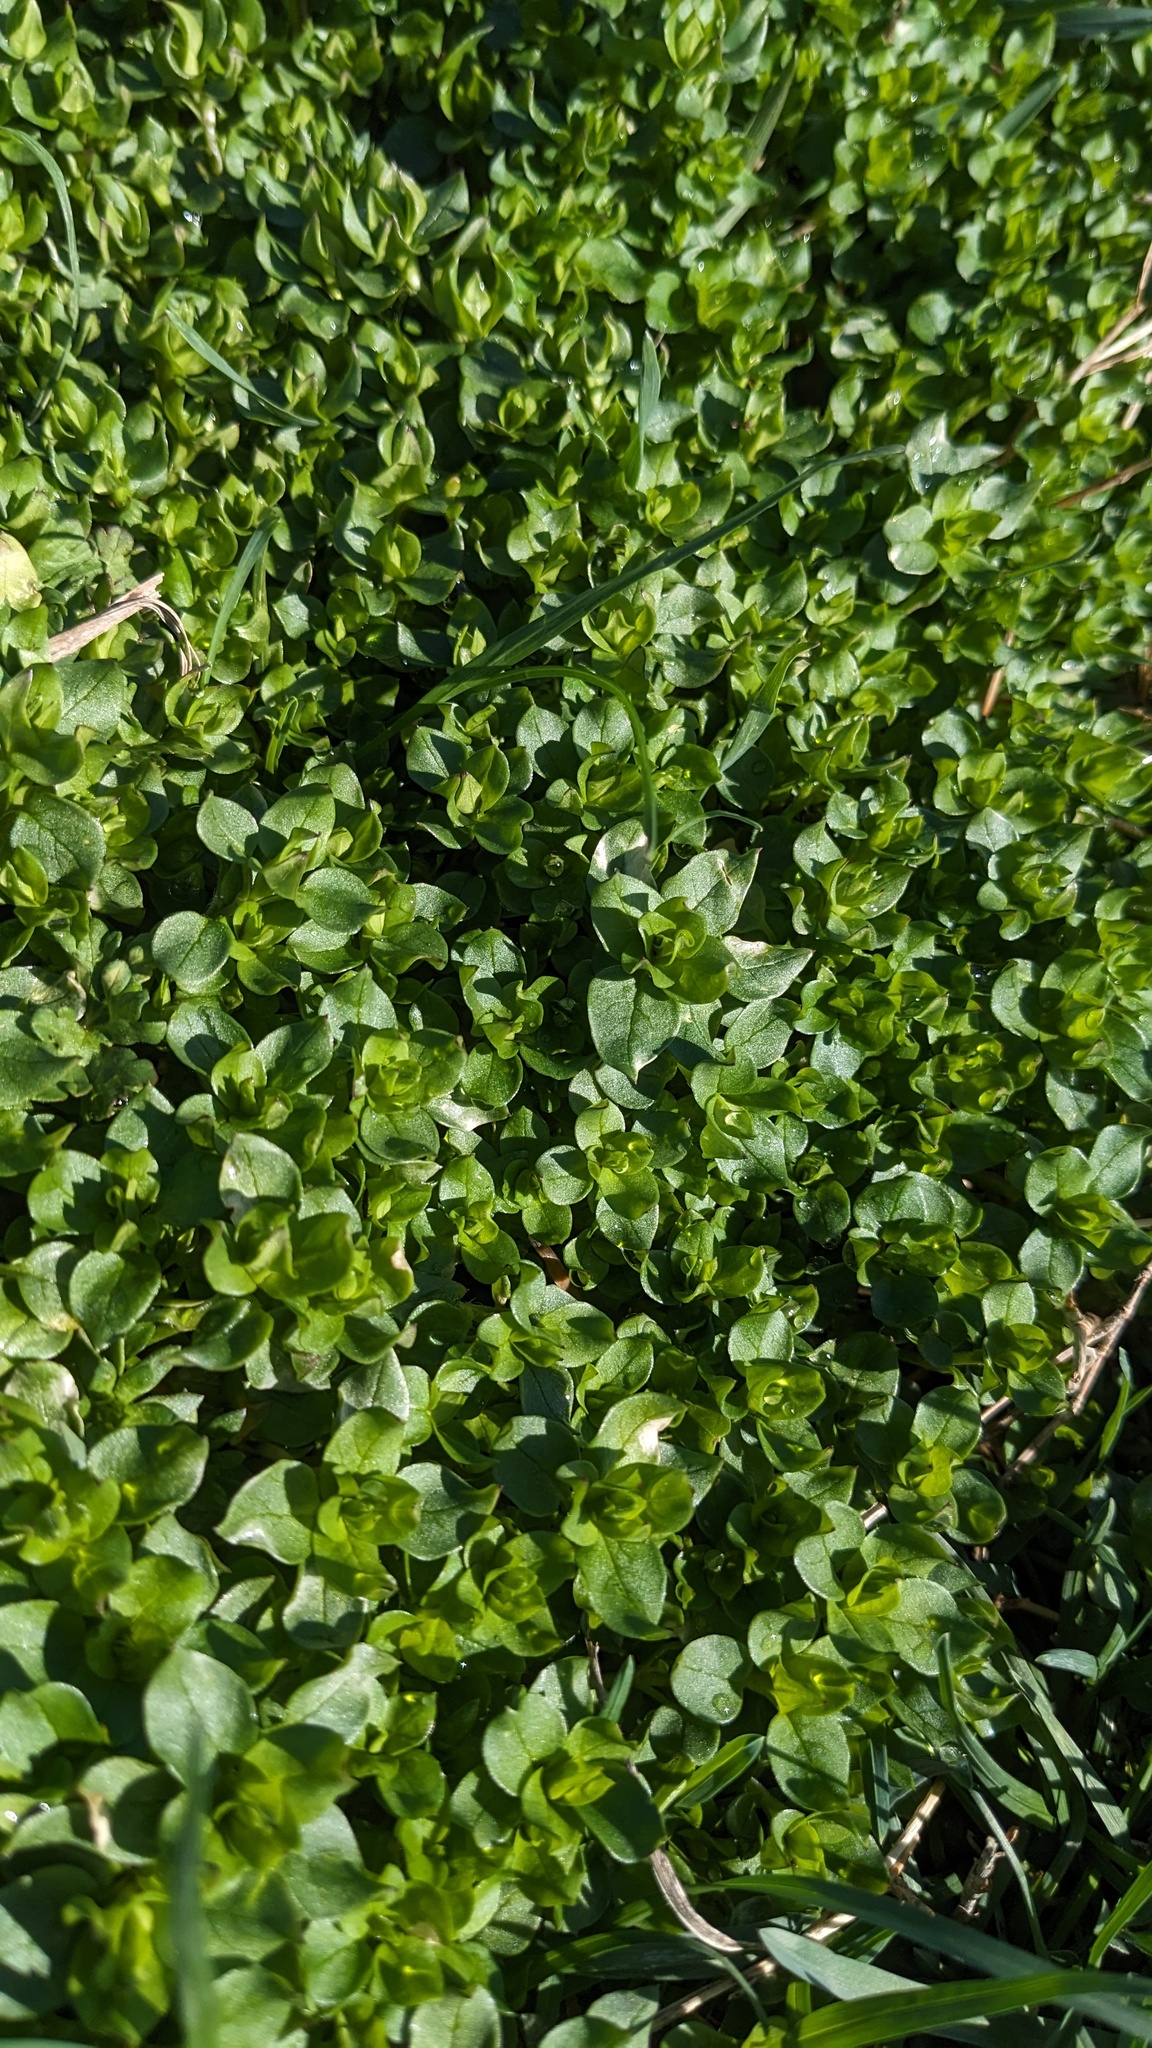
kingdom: Plantae
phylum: Tracheophyta
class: Magnoliopsida
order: Caryophyllales
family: Caryophyllaceae
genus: Stellaria
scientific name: Stellaria media
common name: Common chickweed
